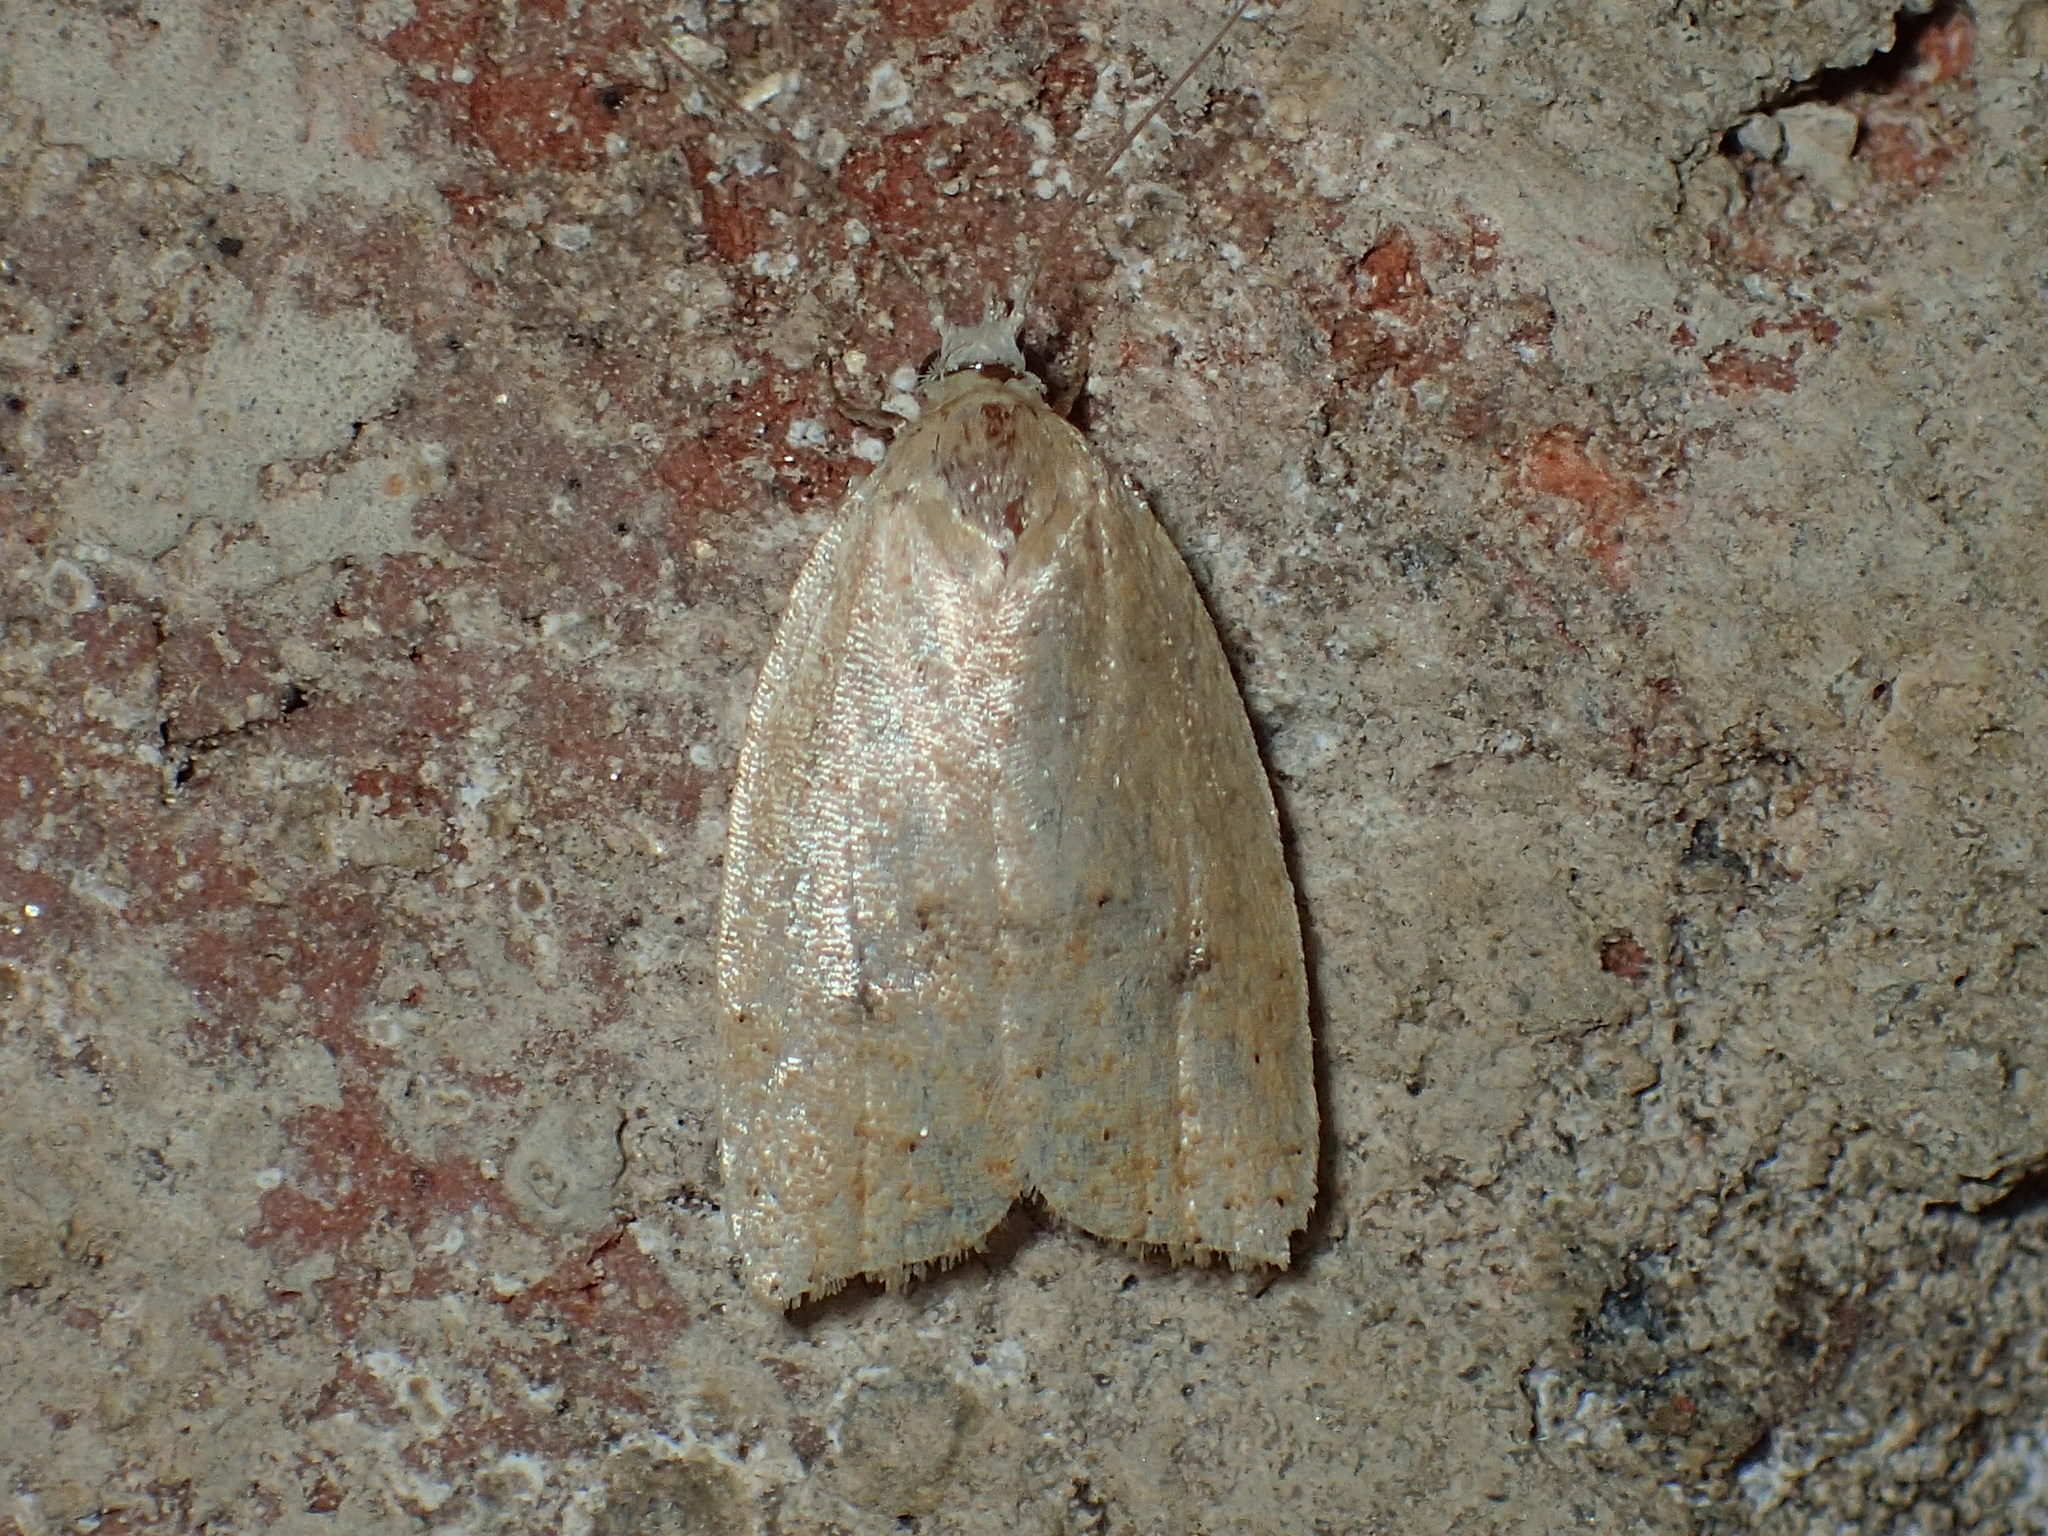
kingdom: Animalia
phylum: Arthropoda
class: Insecta
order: Lepidoptera
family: Tortricidae
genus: Sparganothoides
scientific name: Sparganothoides lentiginosana
